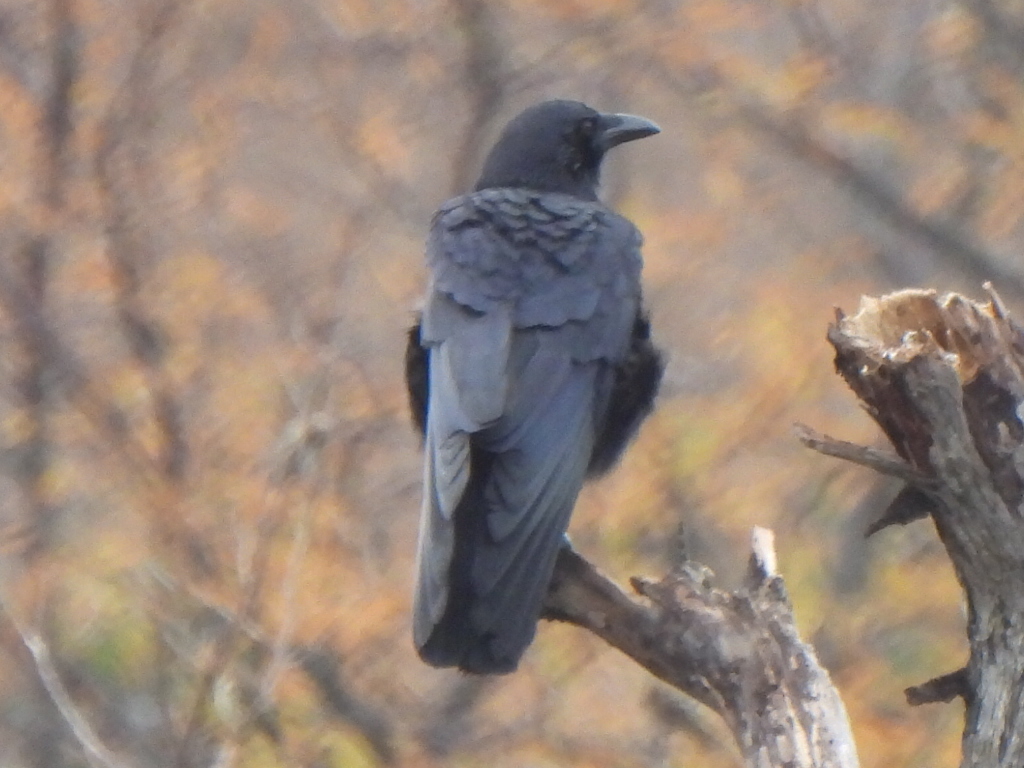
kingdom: Animalia
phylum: Chordata
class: Aves
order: Passeriformes
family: Corvidae
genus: Corvus
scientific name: Corvus brachyrhynchos
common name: American crow
